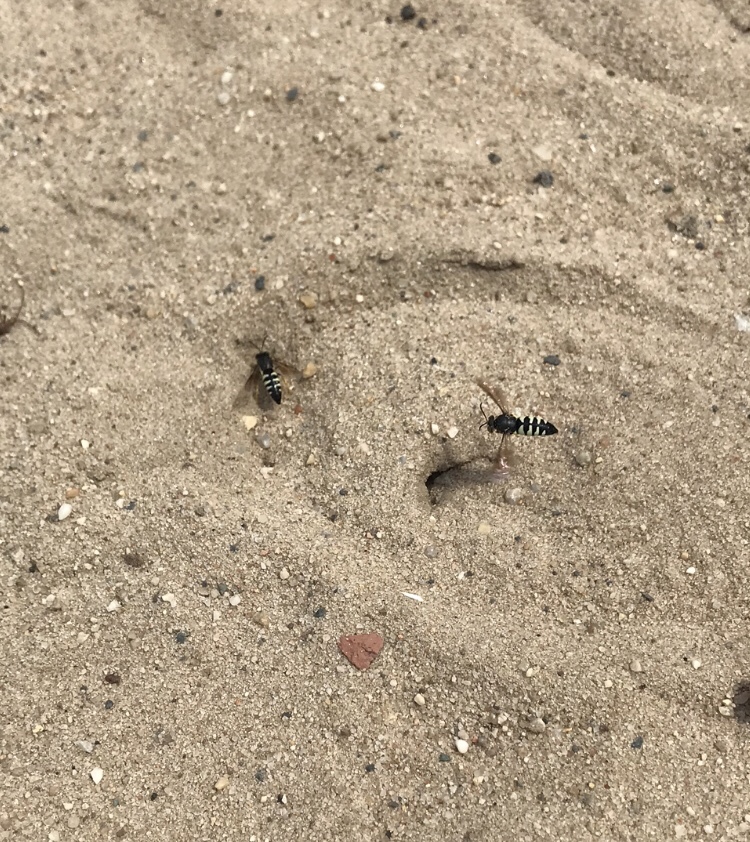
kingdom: Animalia
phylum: Arthropoda
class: Insecta
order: Hymenoptera
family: Crabronidae
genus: Bicyrtes
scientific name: Bicyrtes quadrifasciatus
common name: Four-banded stink bug hunter wasp
